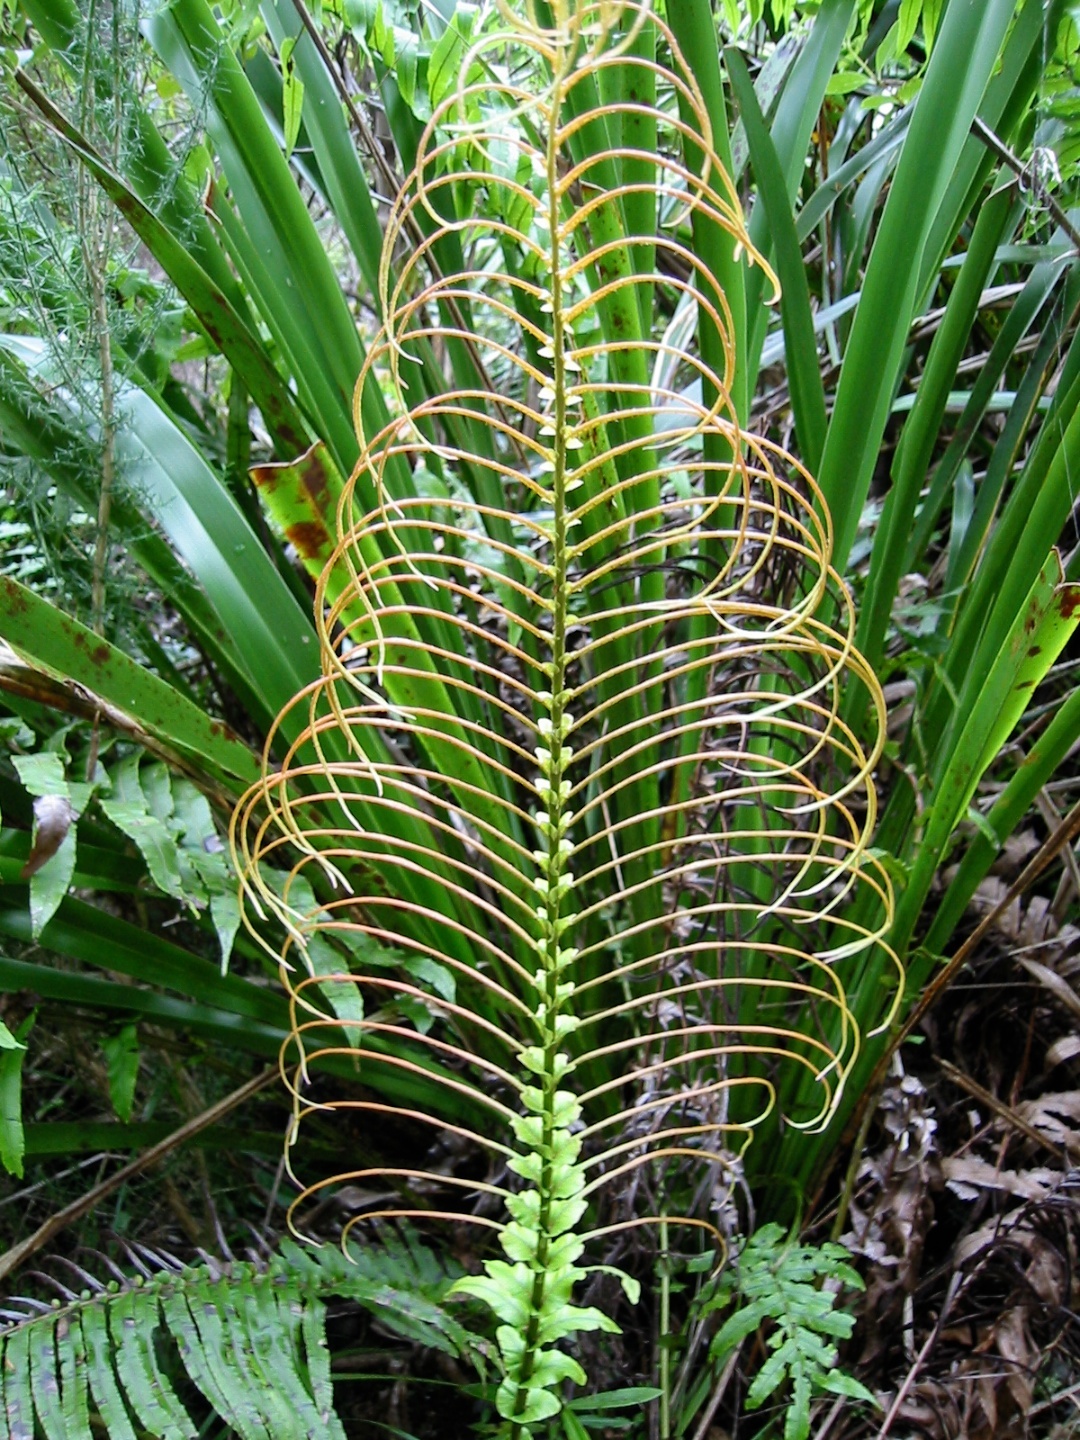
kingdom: Plantae
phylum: Tracheophyta
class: Polypodiopsida
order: Polypodiales
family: Blechnaceae
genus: Parablechnum
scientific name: Parablechnum novae-zelandiae
